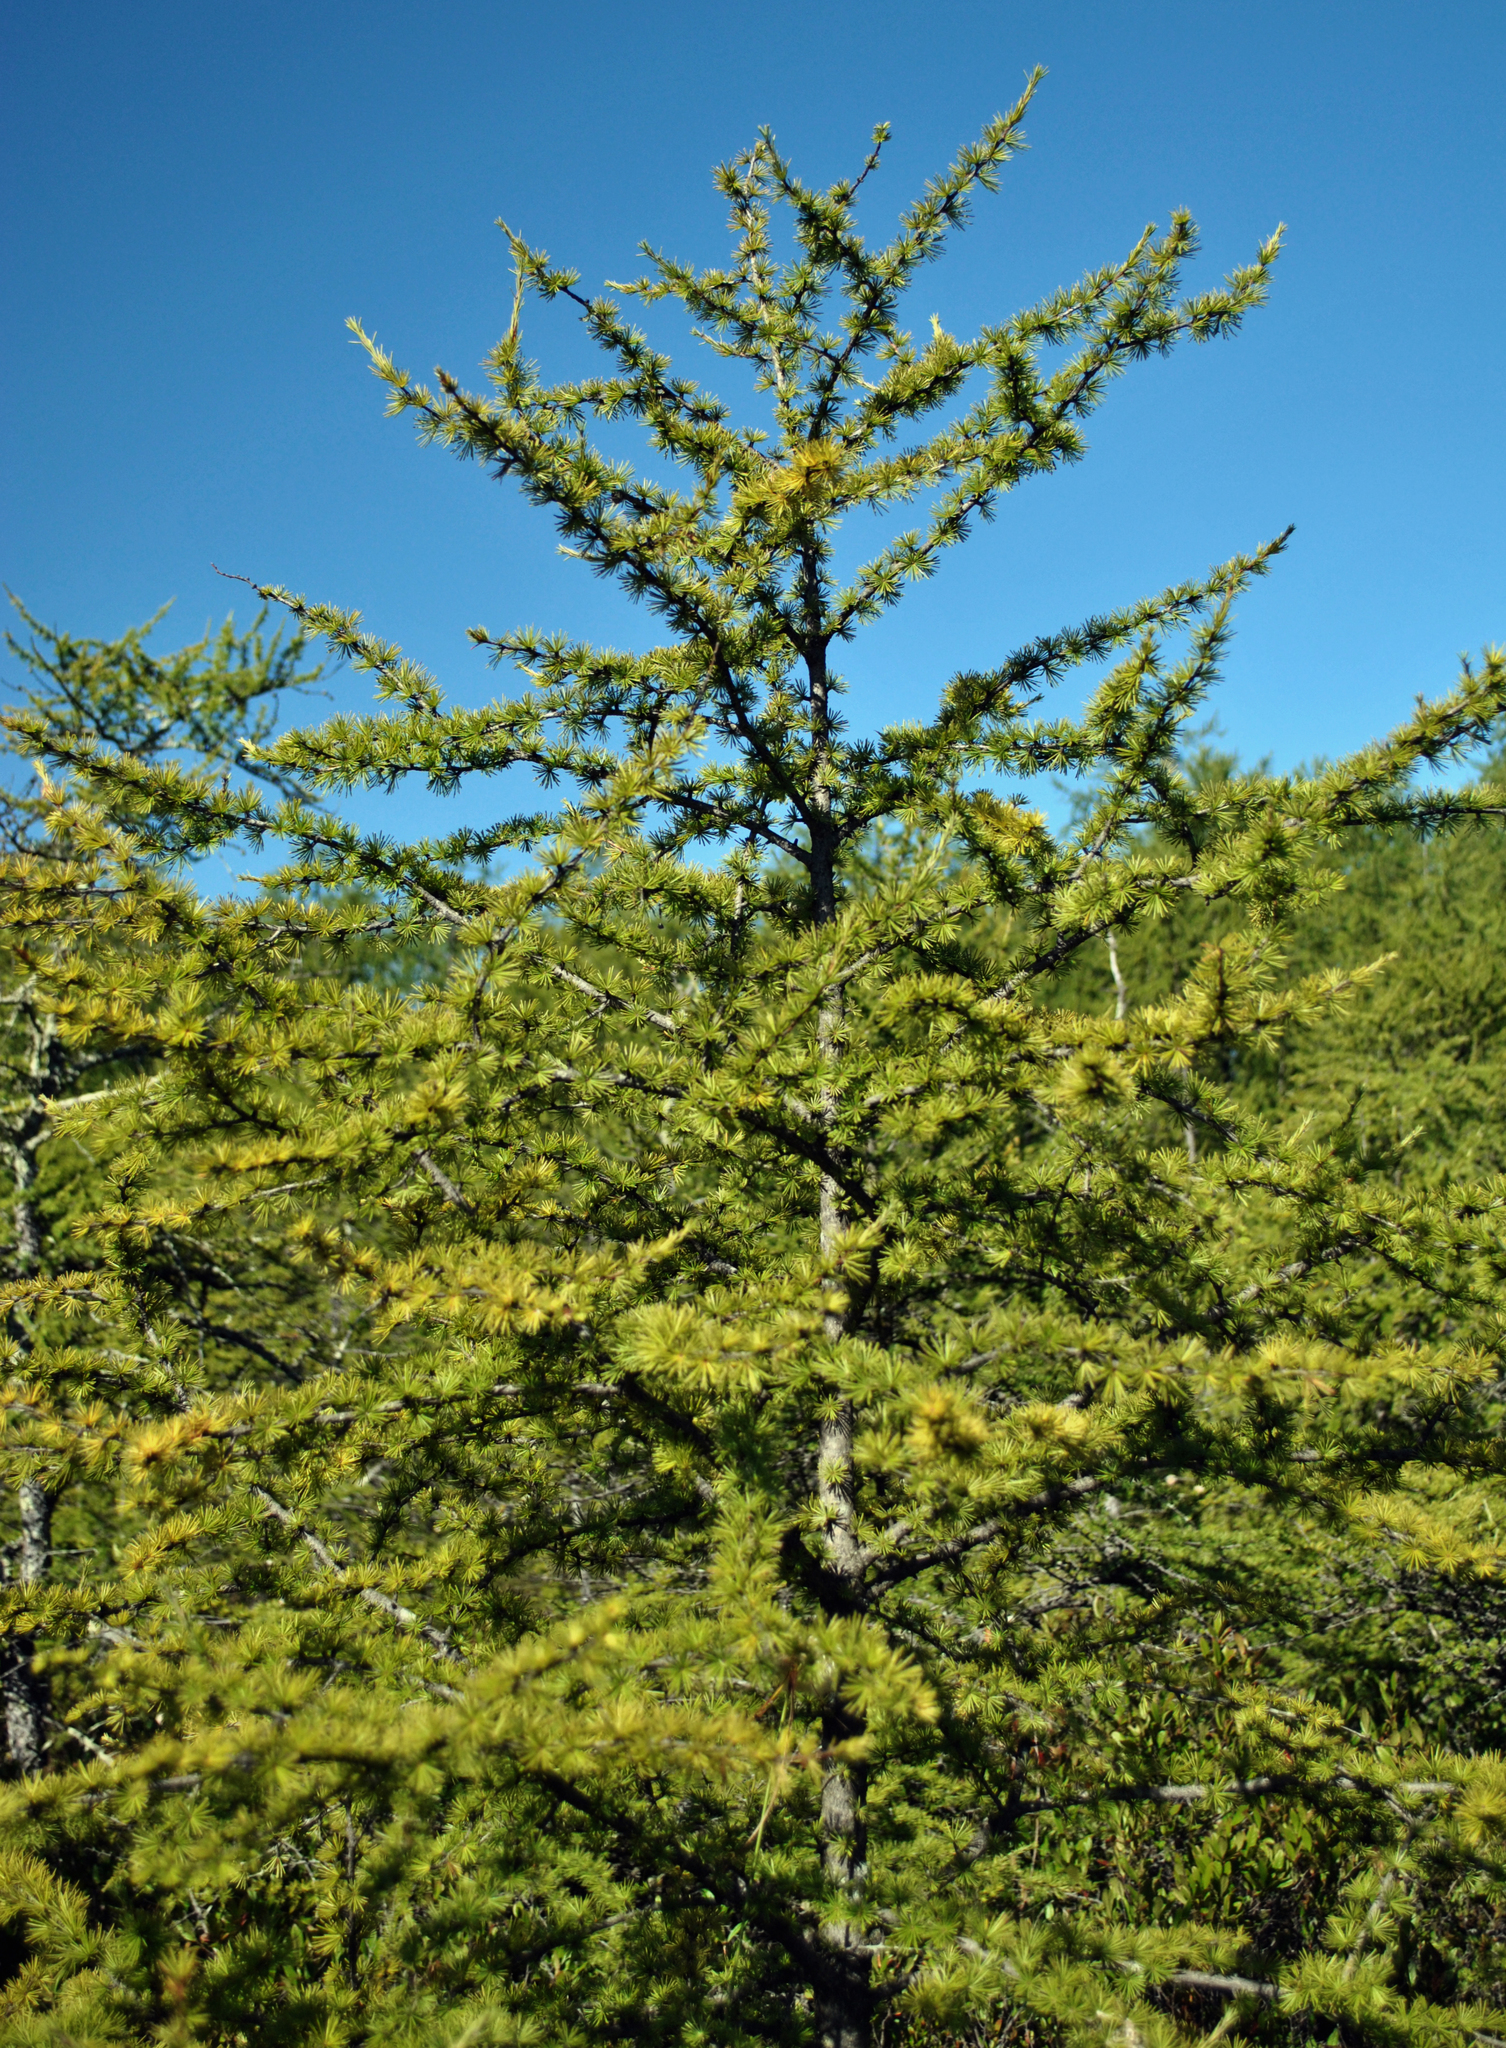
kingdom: Plantae
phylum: Tracheophyta
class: Pinopsida
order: Pinales
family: Pinaceae
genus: Larix
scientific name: Larix laricina
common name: American larch
